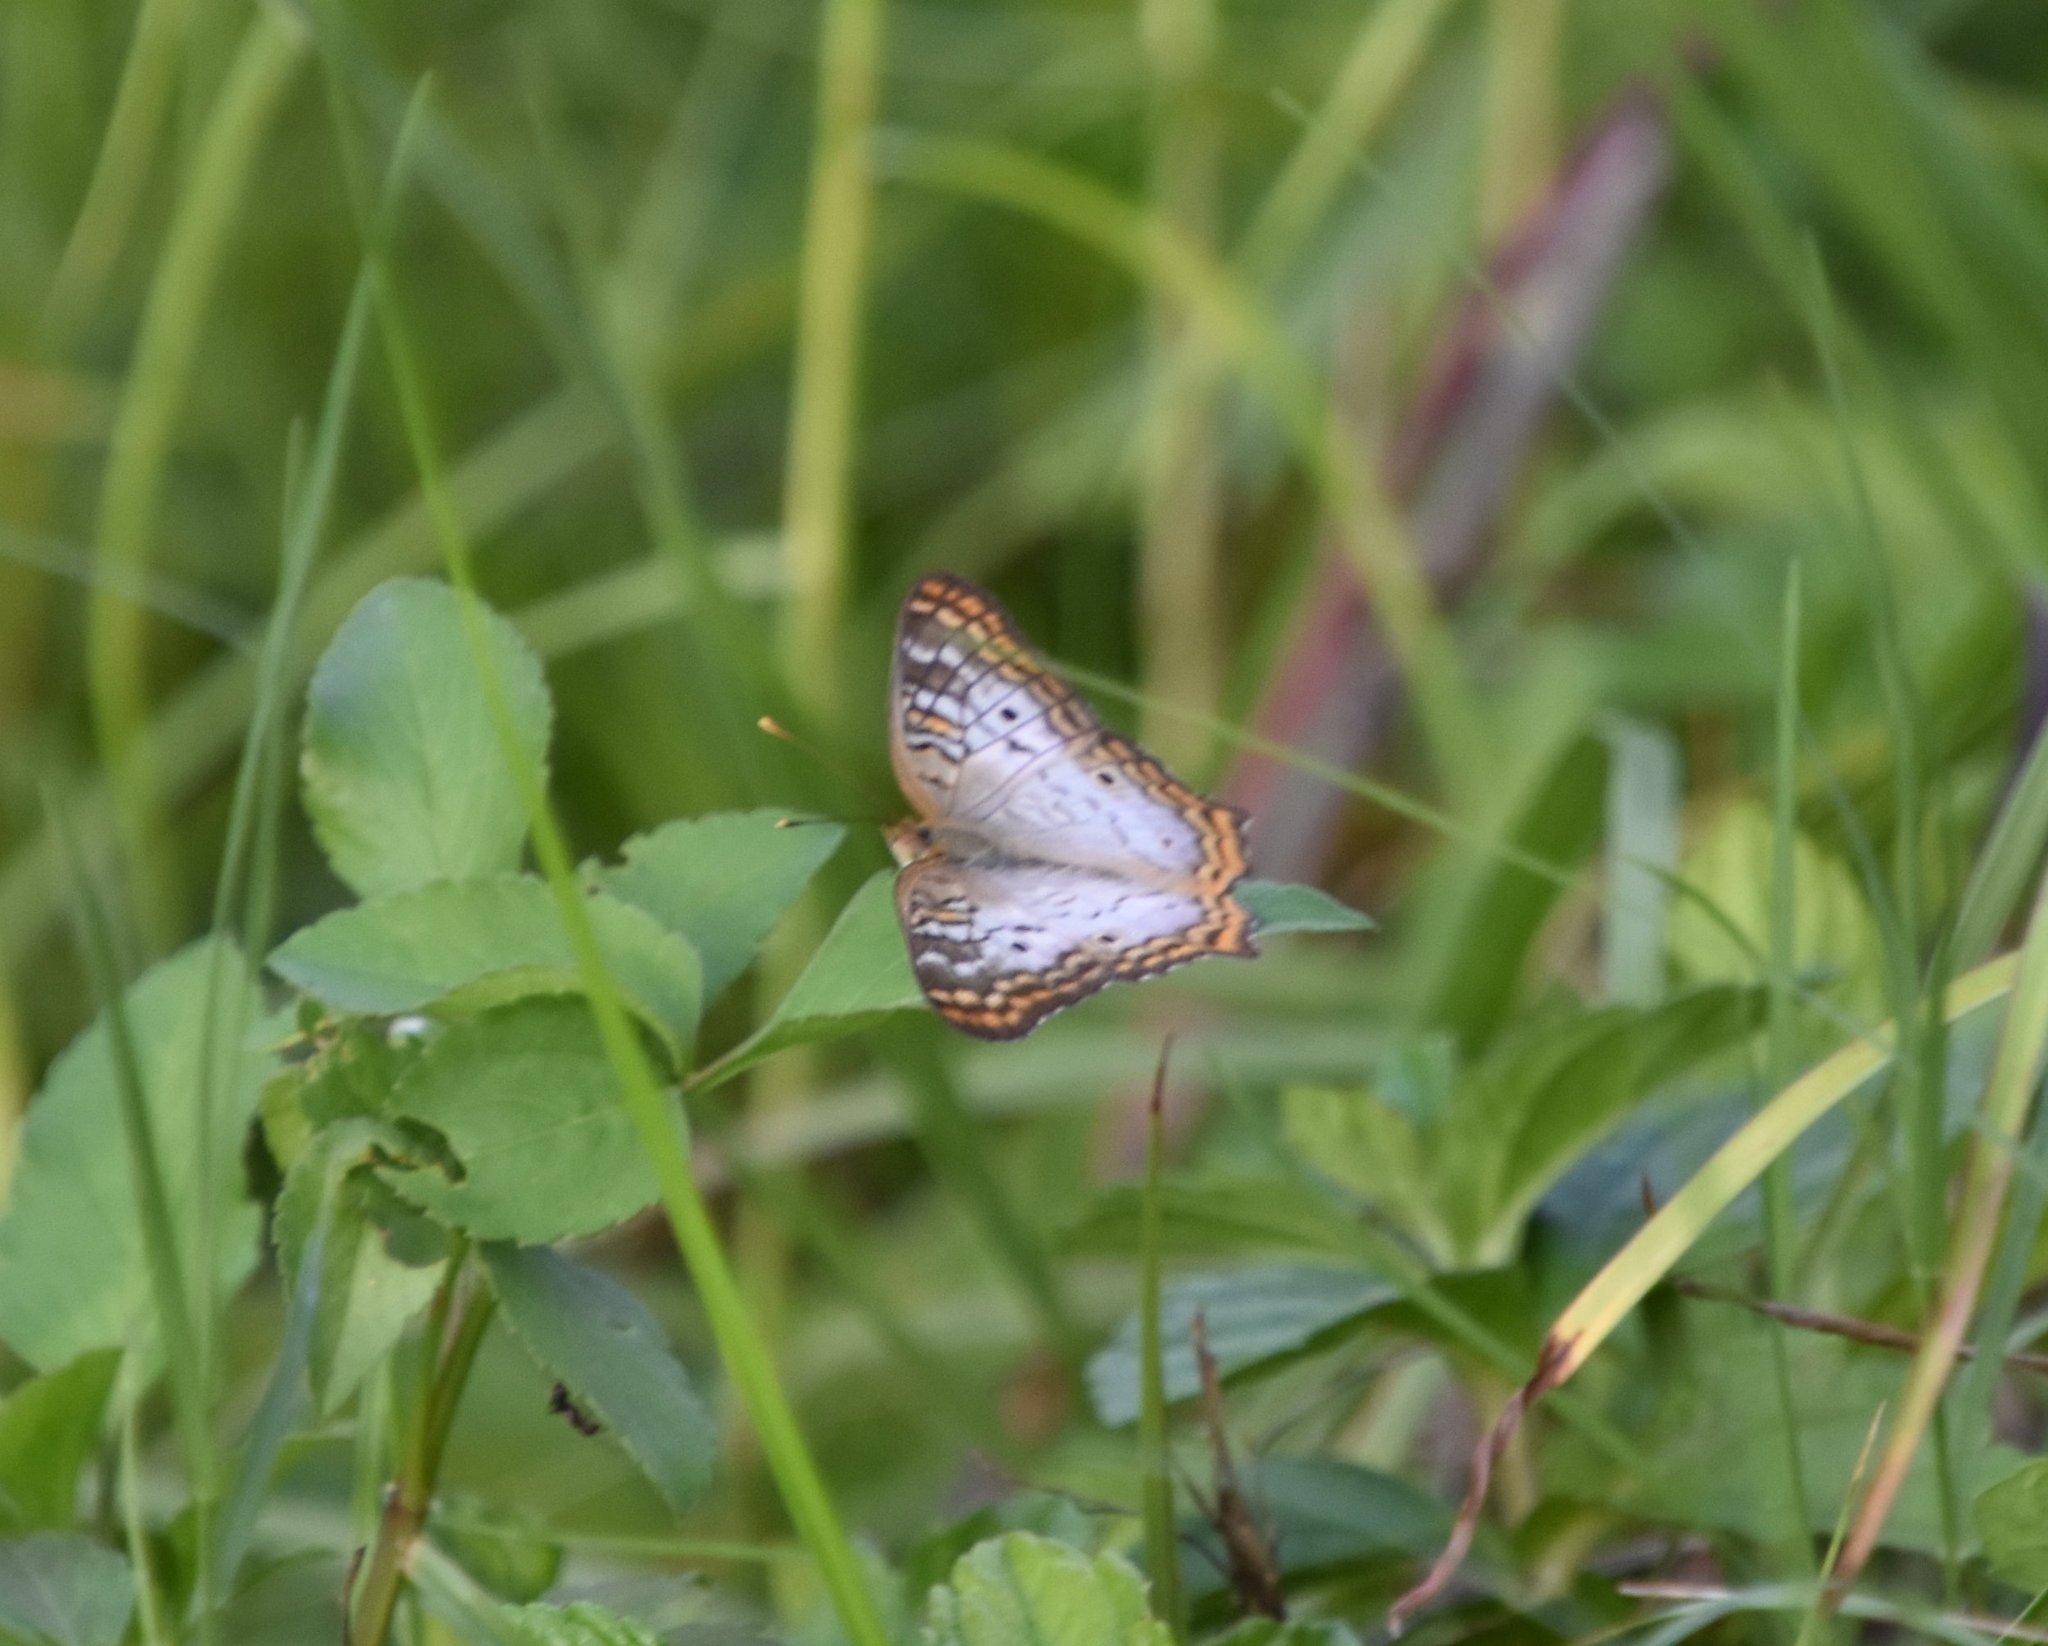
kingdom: Animalia
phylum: Arthropoda
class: Insecta
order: Lepidoptera
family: Nymphalidae
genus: Anartia
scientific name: Anartia jatrophae
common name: White peacock
